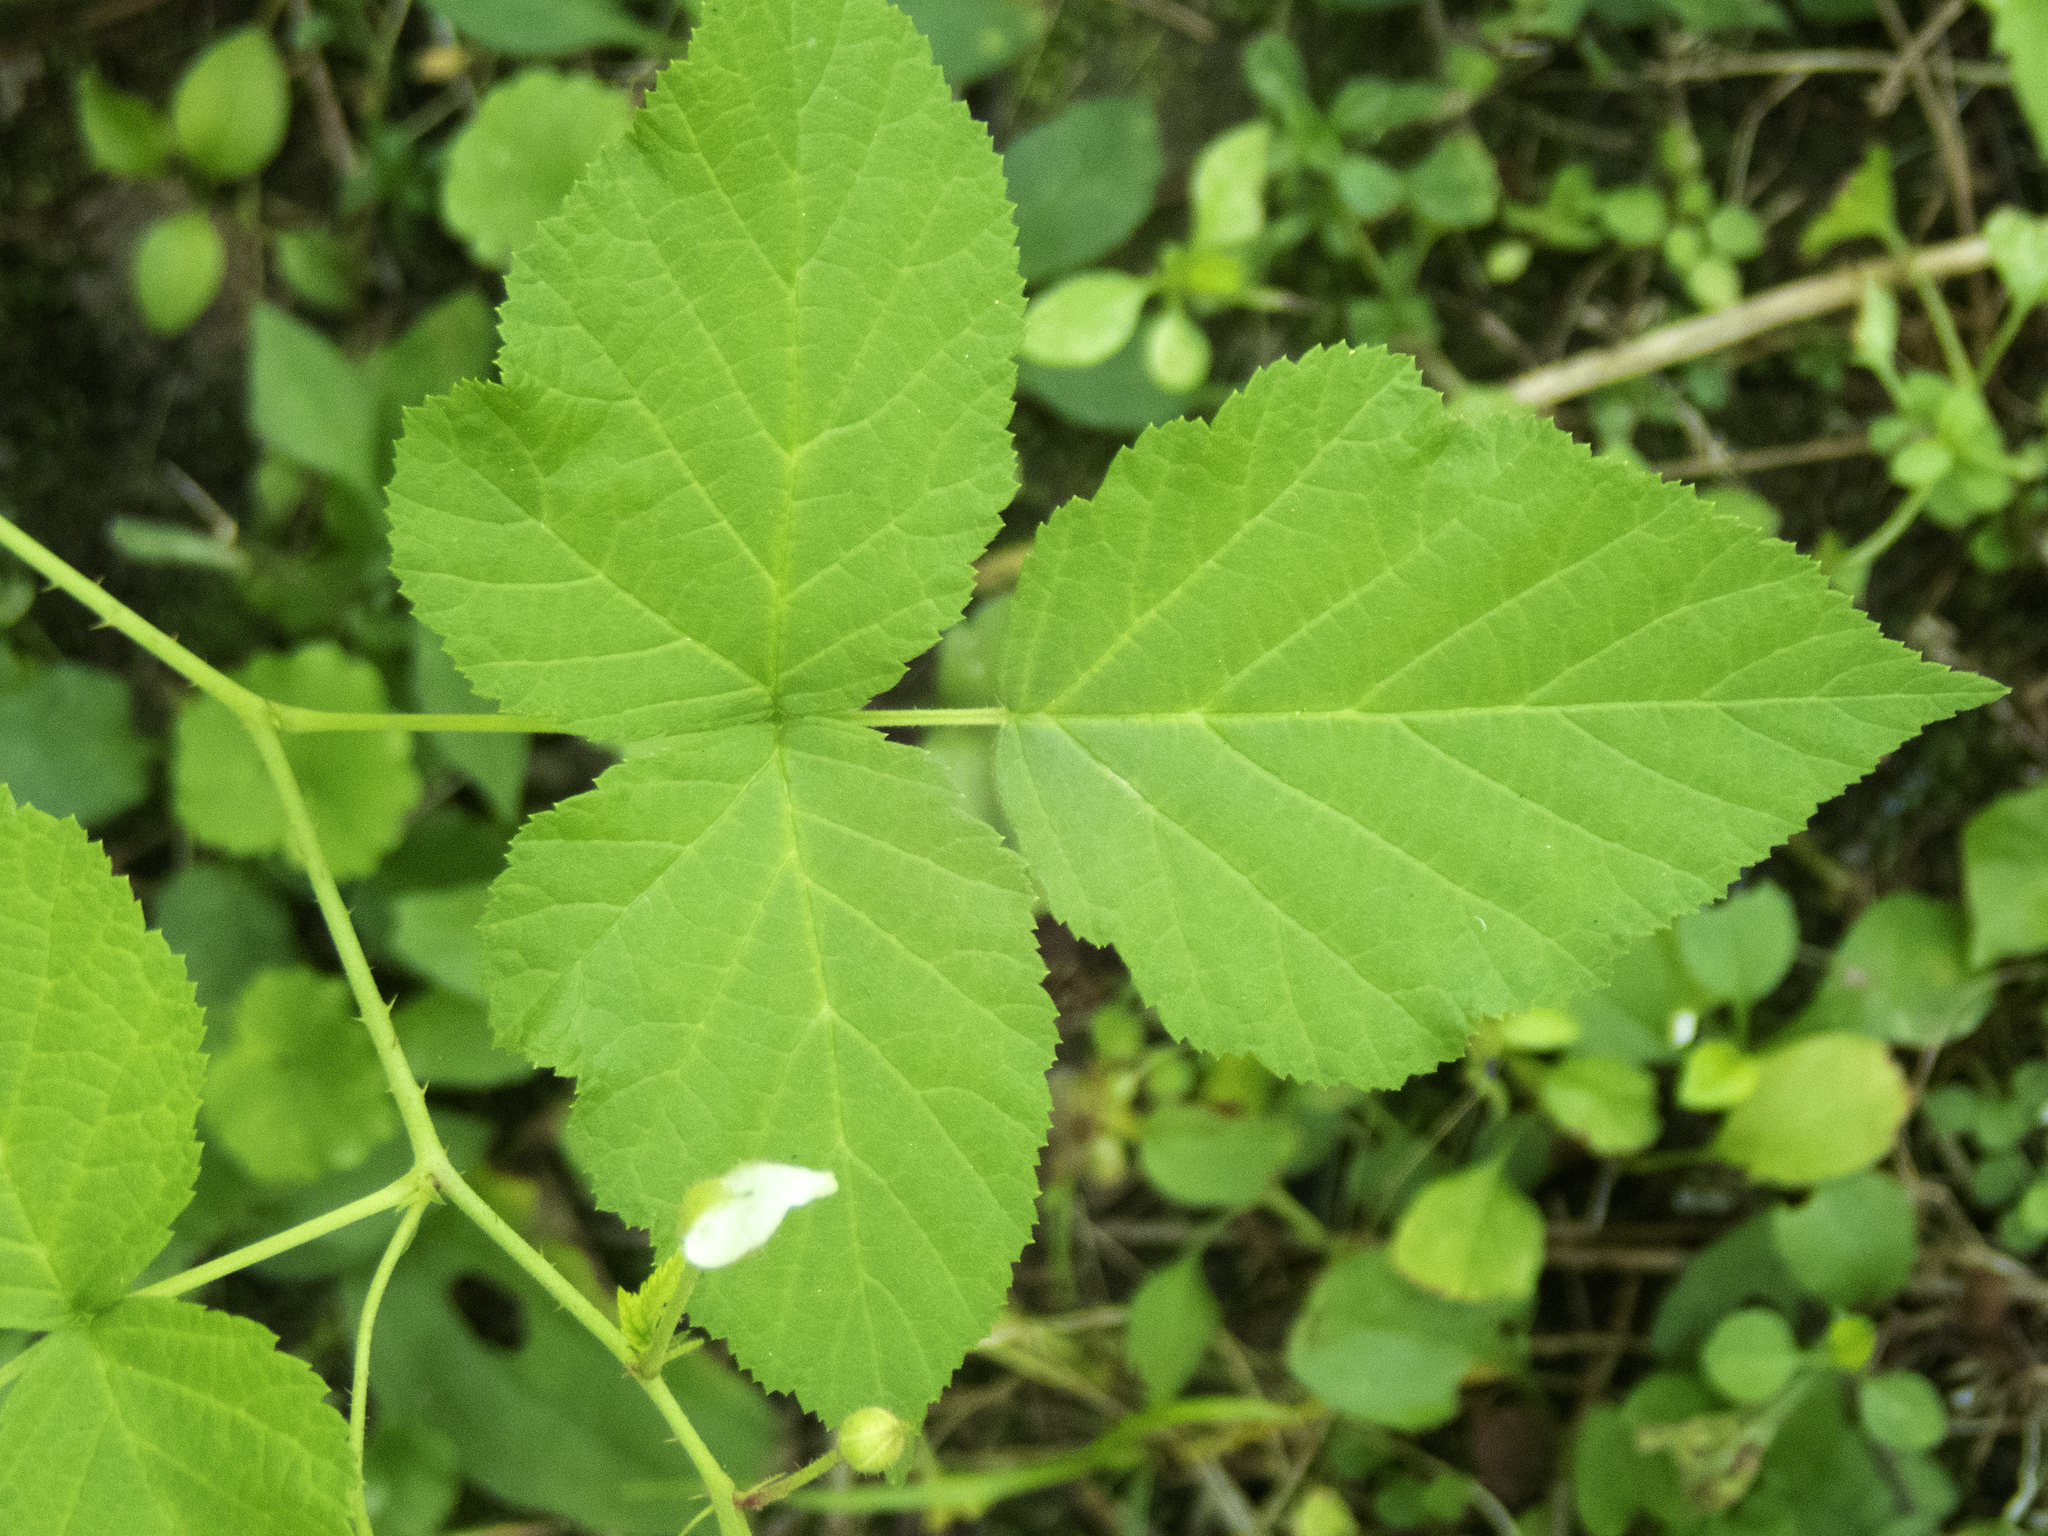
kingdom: Plantae
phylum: Tracheophyta
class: Magnoliopsida
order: Rosales
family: Rosaceae
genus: Rubus
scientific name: Rubus caesius
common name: Dewberry
